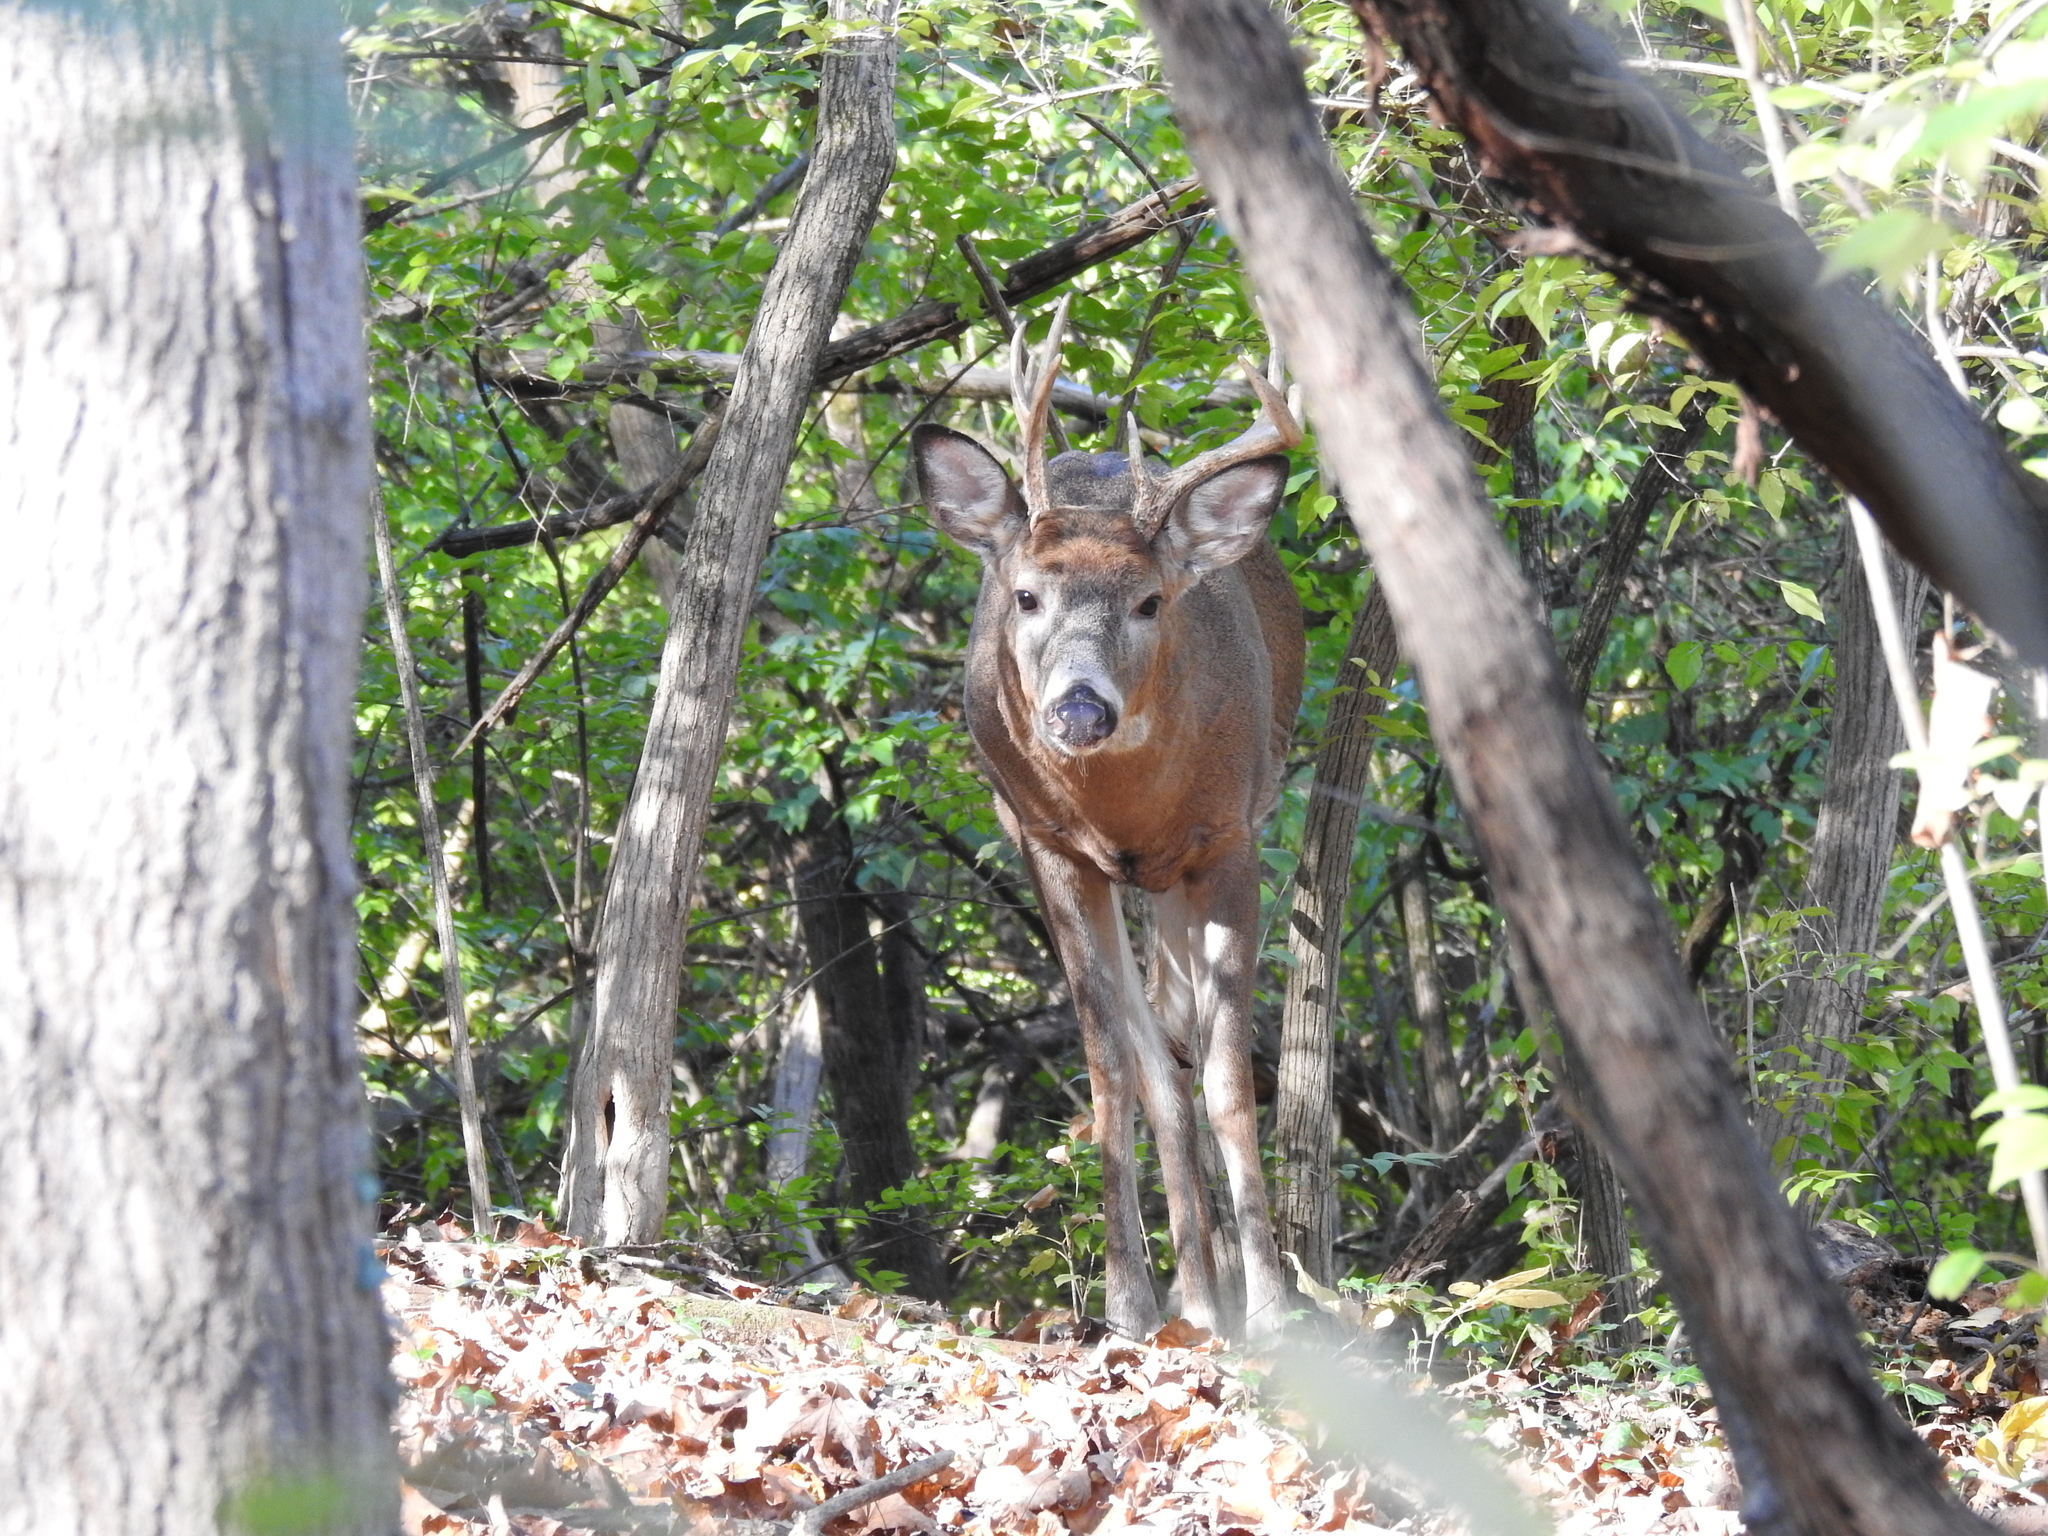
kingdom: Animalia
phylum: Chordata
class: Mammalia
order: Artiodactyla
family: Cervidae
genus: Odocoileus
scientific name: Odocoileus virginianus
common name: White-tailed deer
